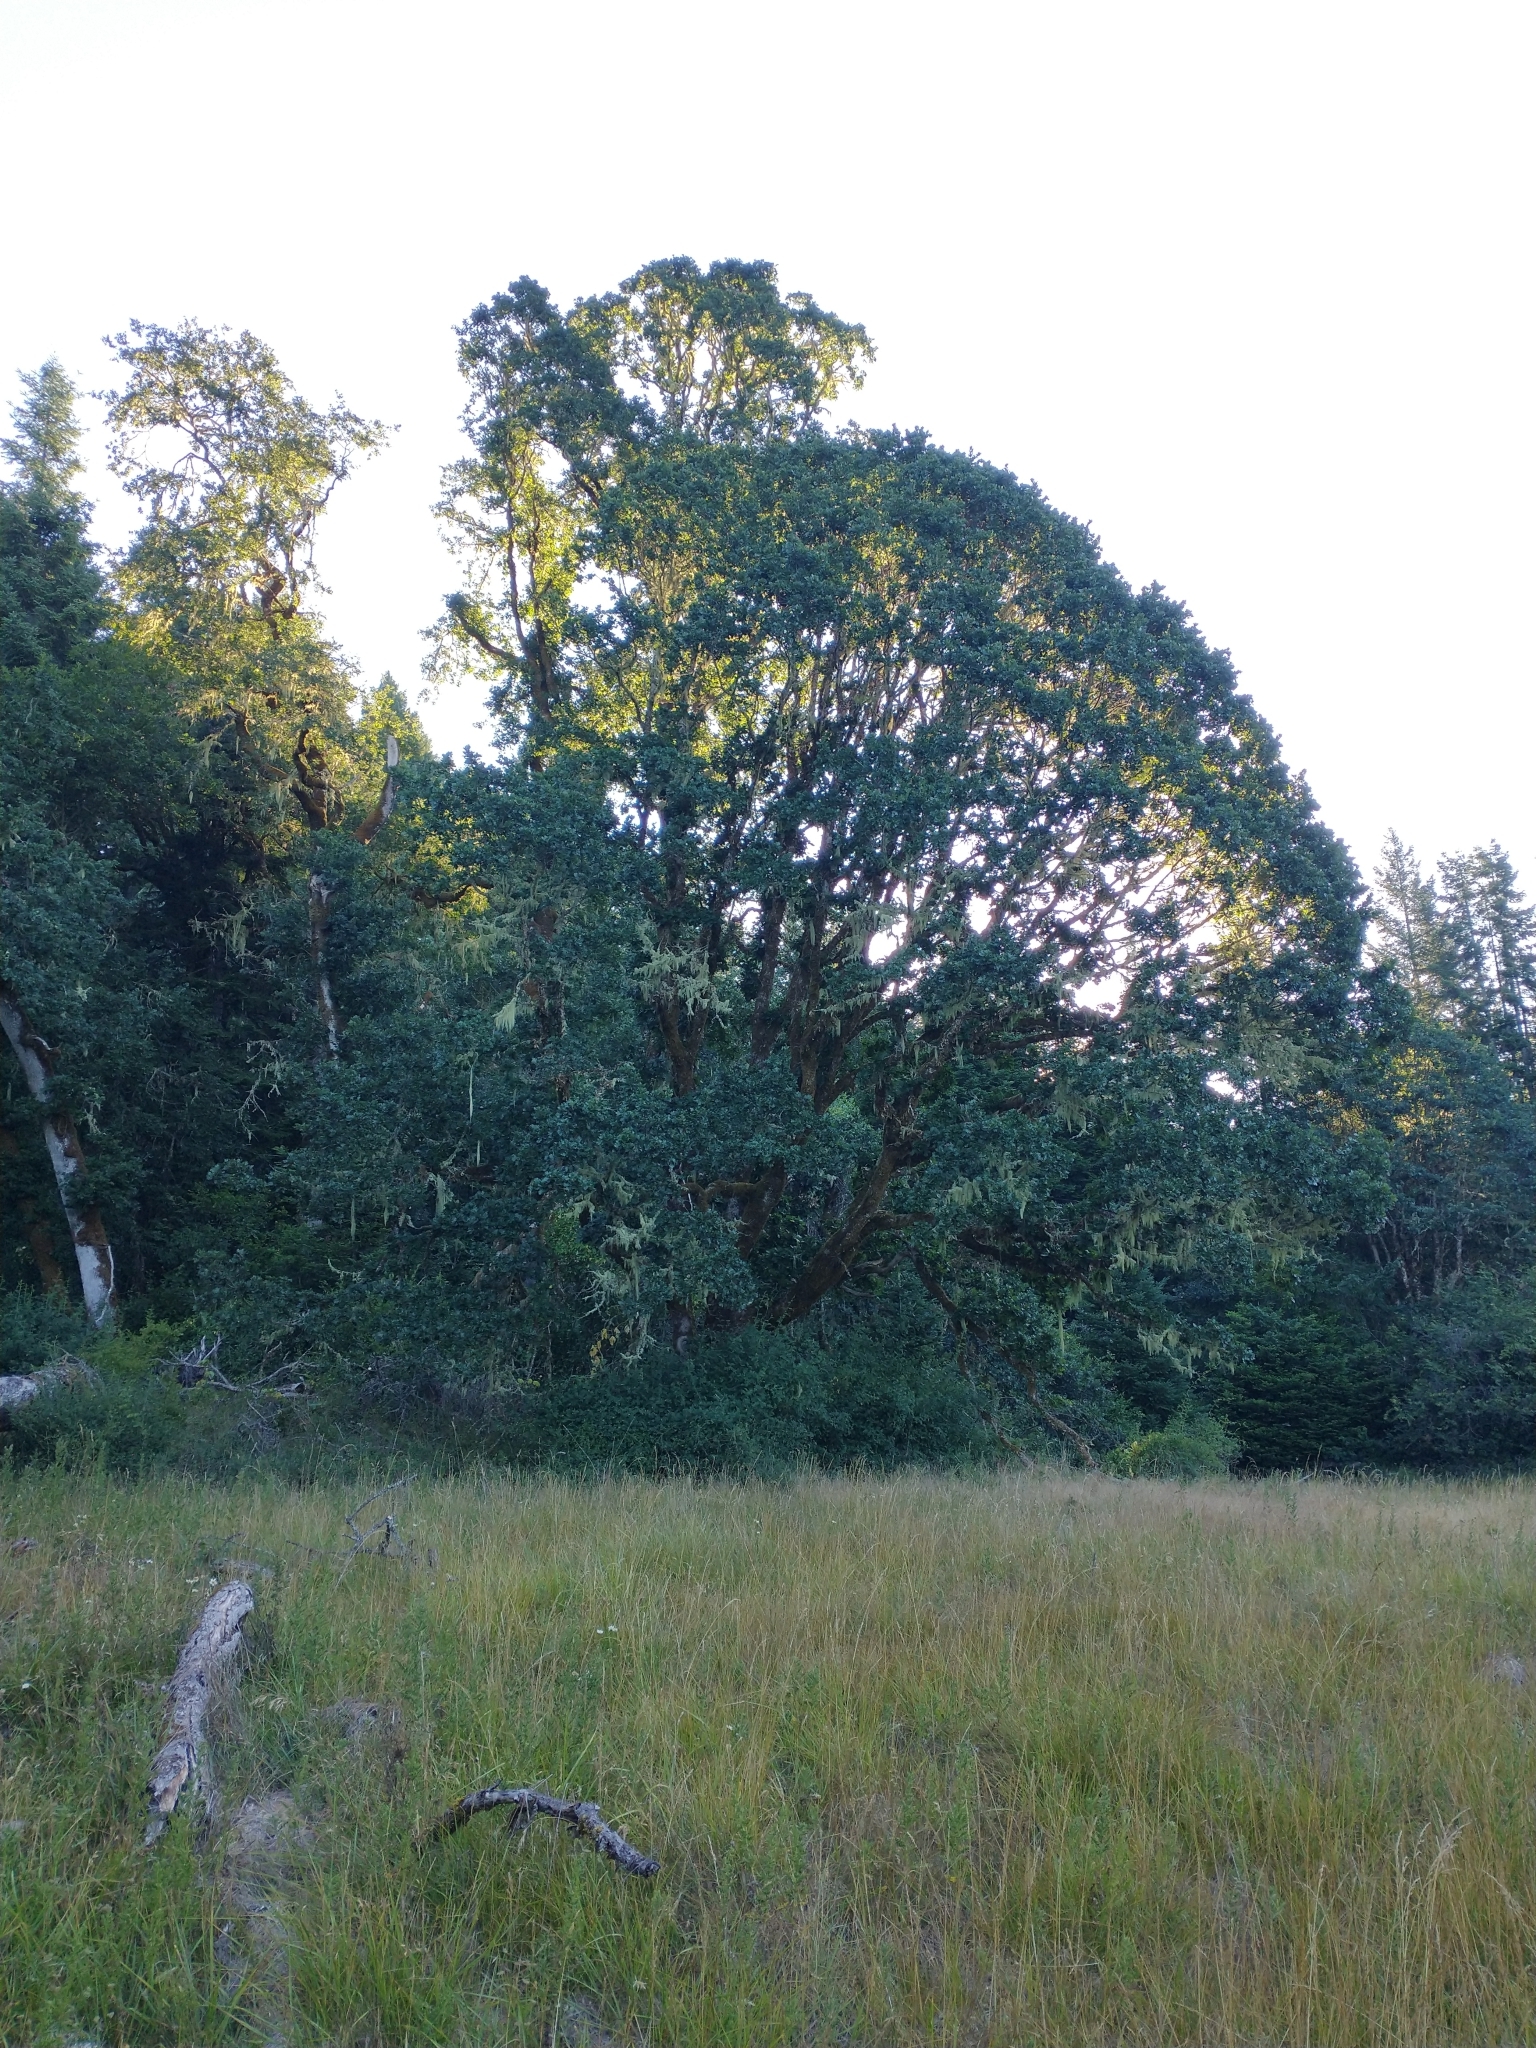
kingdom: Plantae
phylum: Tracheophyta
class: Magnoliopsida
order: Fagales
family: Fagaceae
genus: Quercus
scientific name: Quercus garryana
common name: Garry oak
